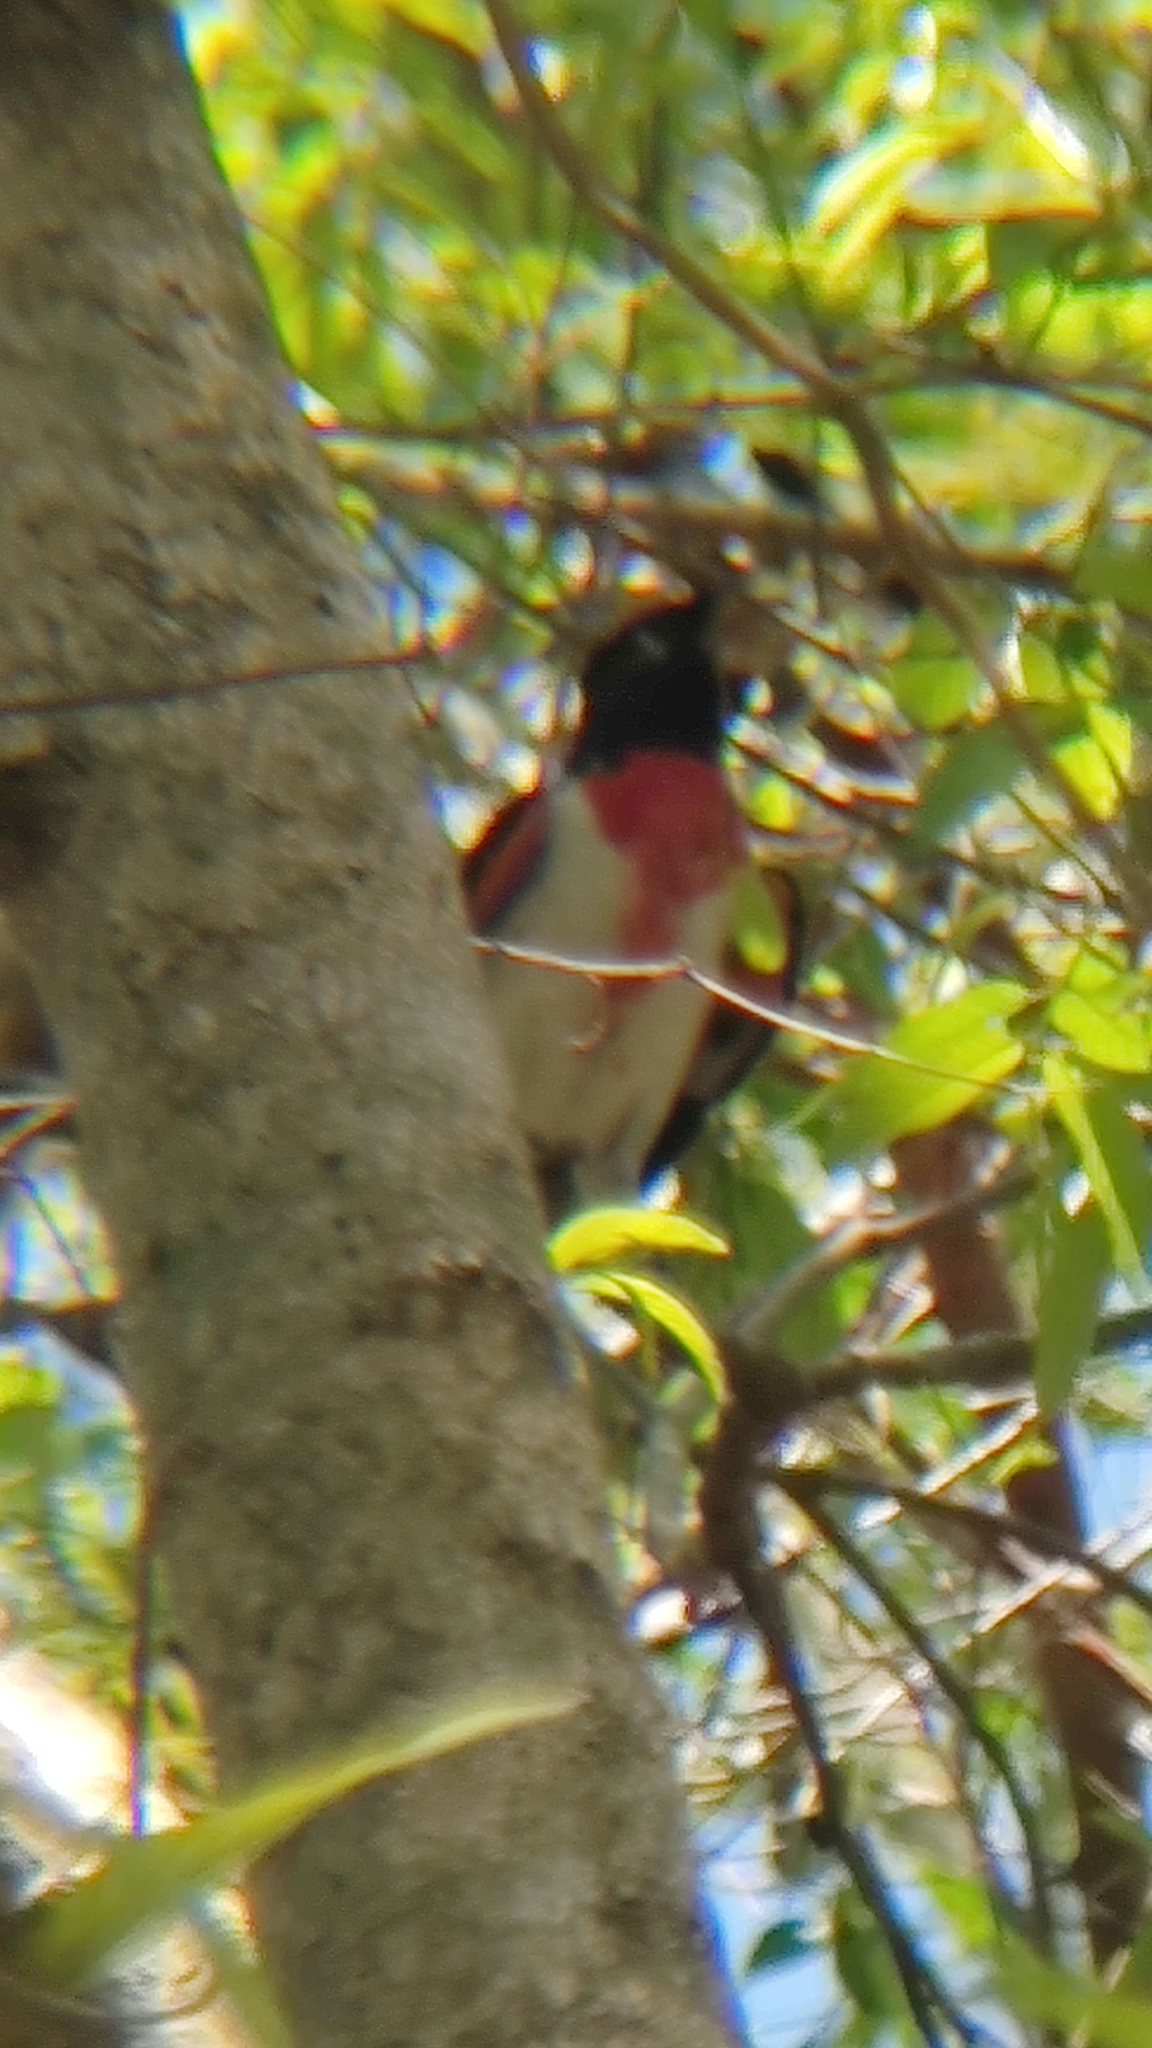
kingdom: Animalia
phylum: Chordata
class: Aves
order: Passeriformes
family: Cardinalidae
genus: Pheucticus
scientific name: Pheucticus ludovicianus
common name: Rose-breasted grosbeak
